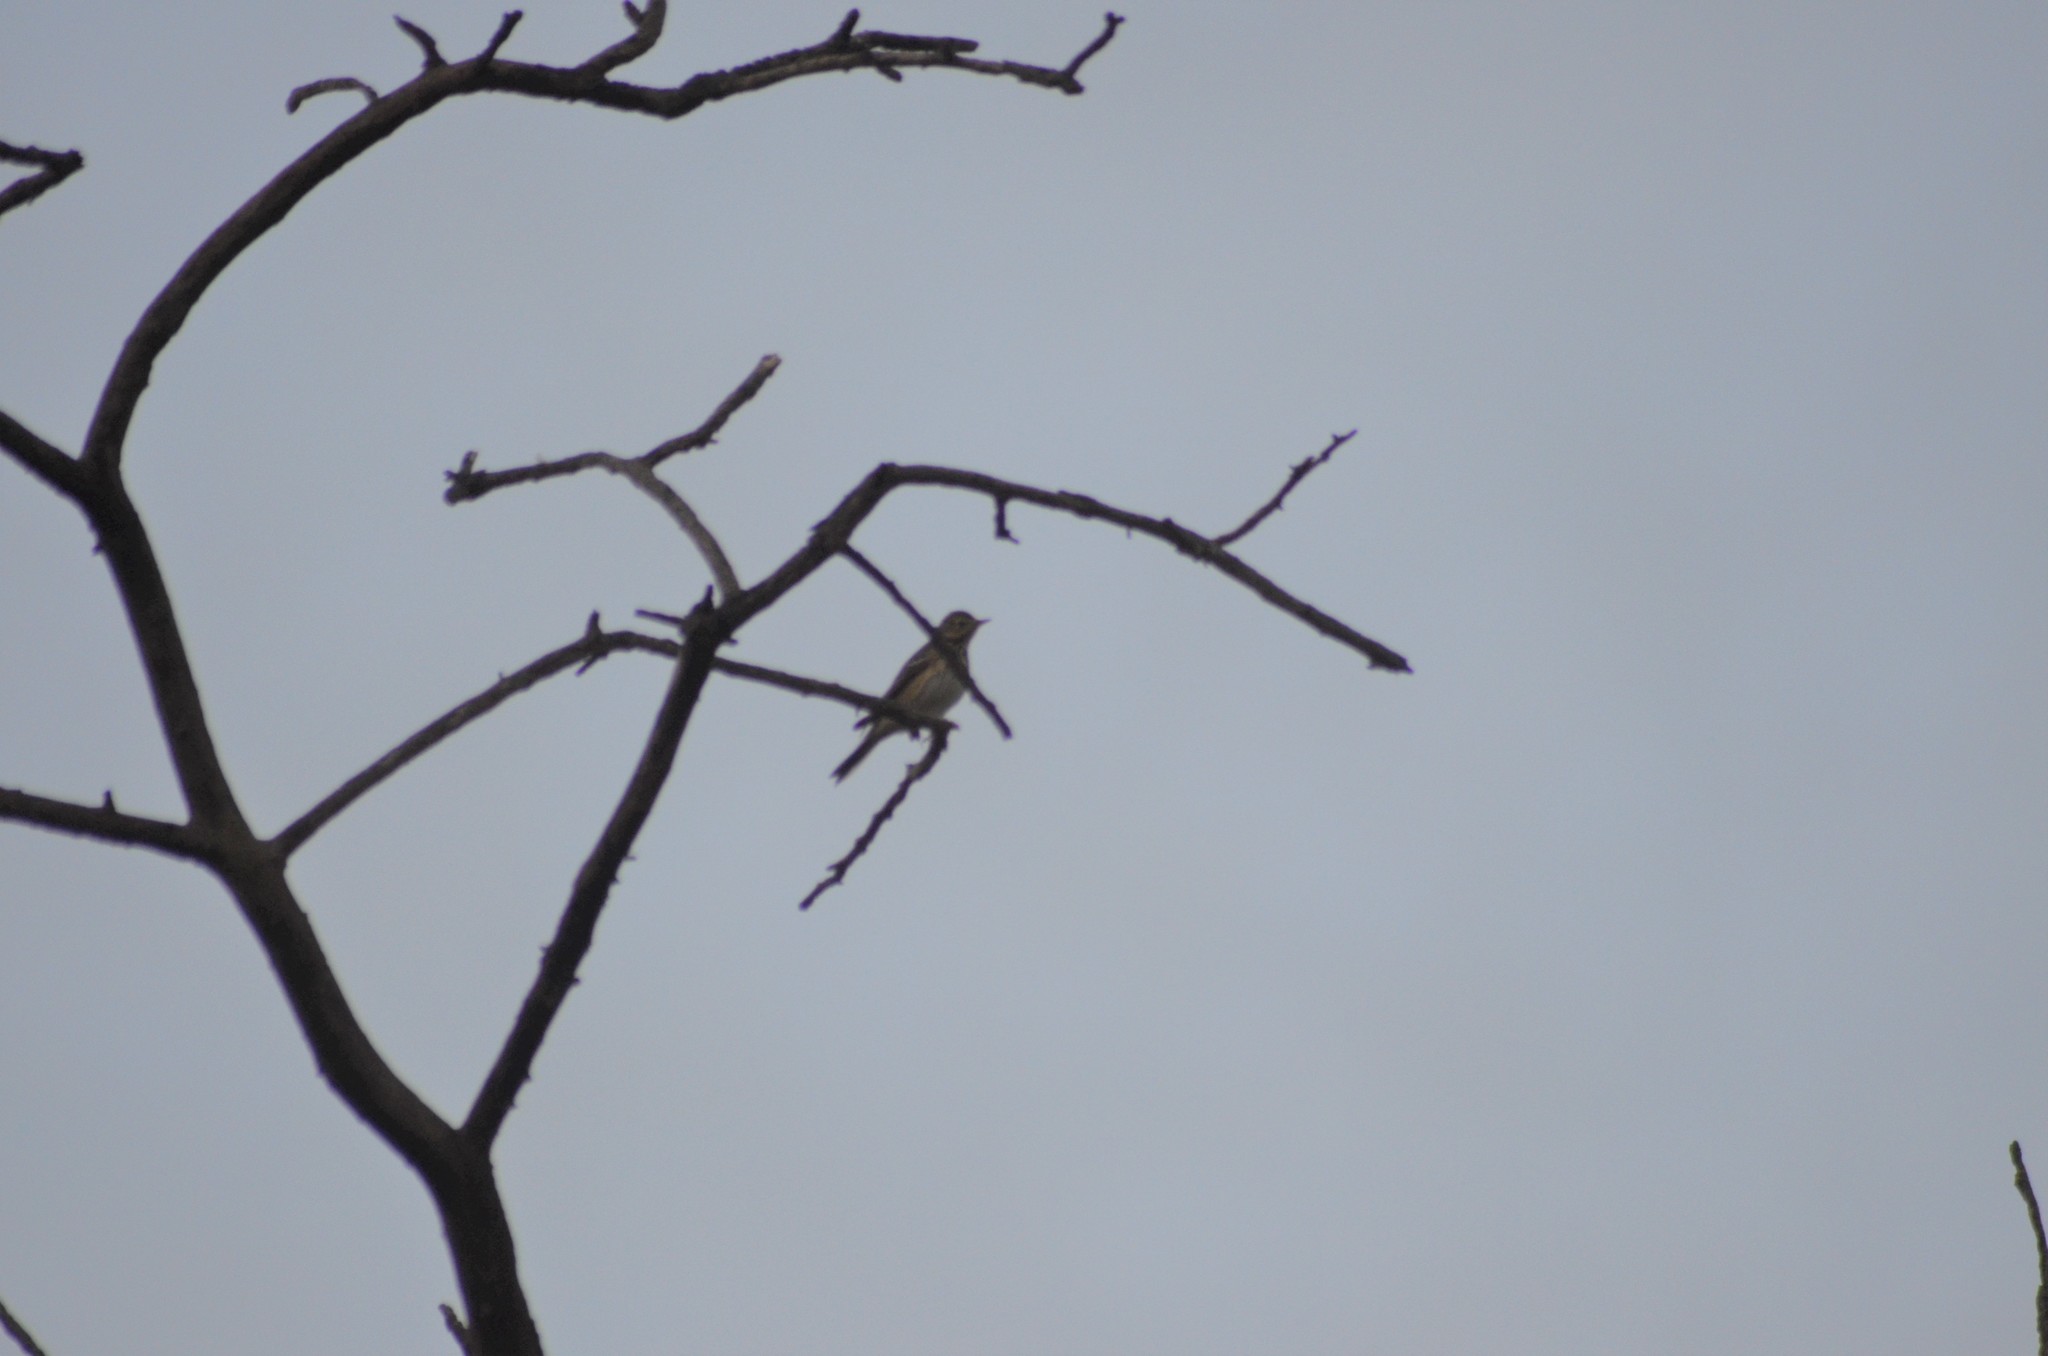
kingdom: Animalia
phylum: Chordata
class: Aves
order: Passeriformes
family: Motacillidae
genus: Anthus
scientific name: Anthus trivialis
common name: Tree pipit
